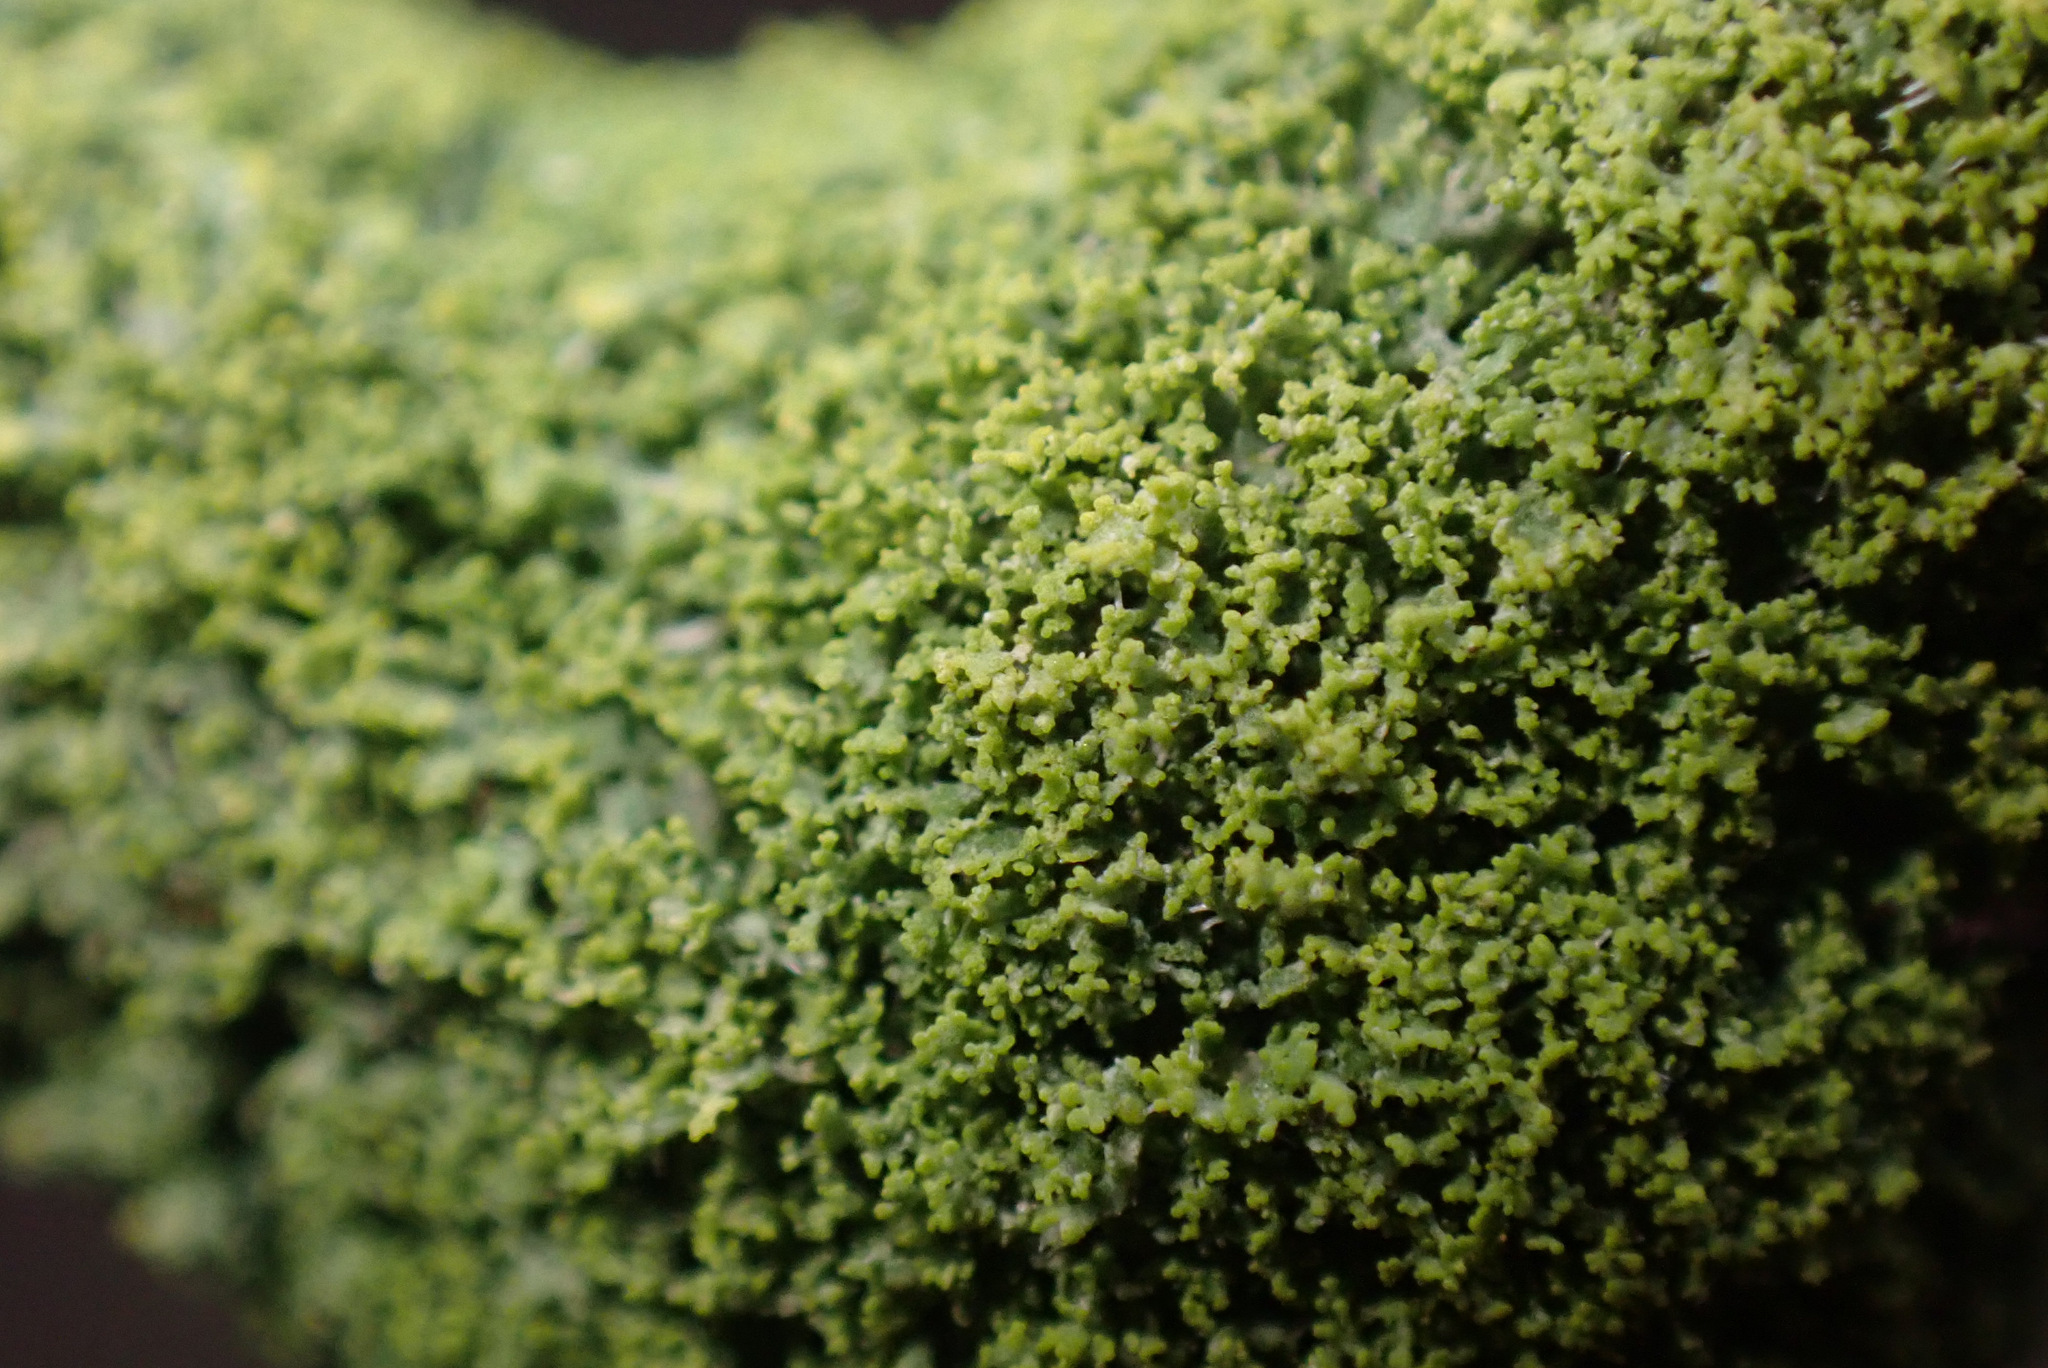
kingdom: Fungi
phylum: Ascomycota
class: Candelariomycetes
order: Candelariales
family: Candelariaceae
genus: Candelaria
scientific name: Candelaria concolor
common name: Candleflame lichen
